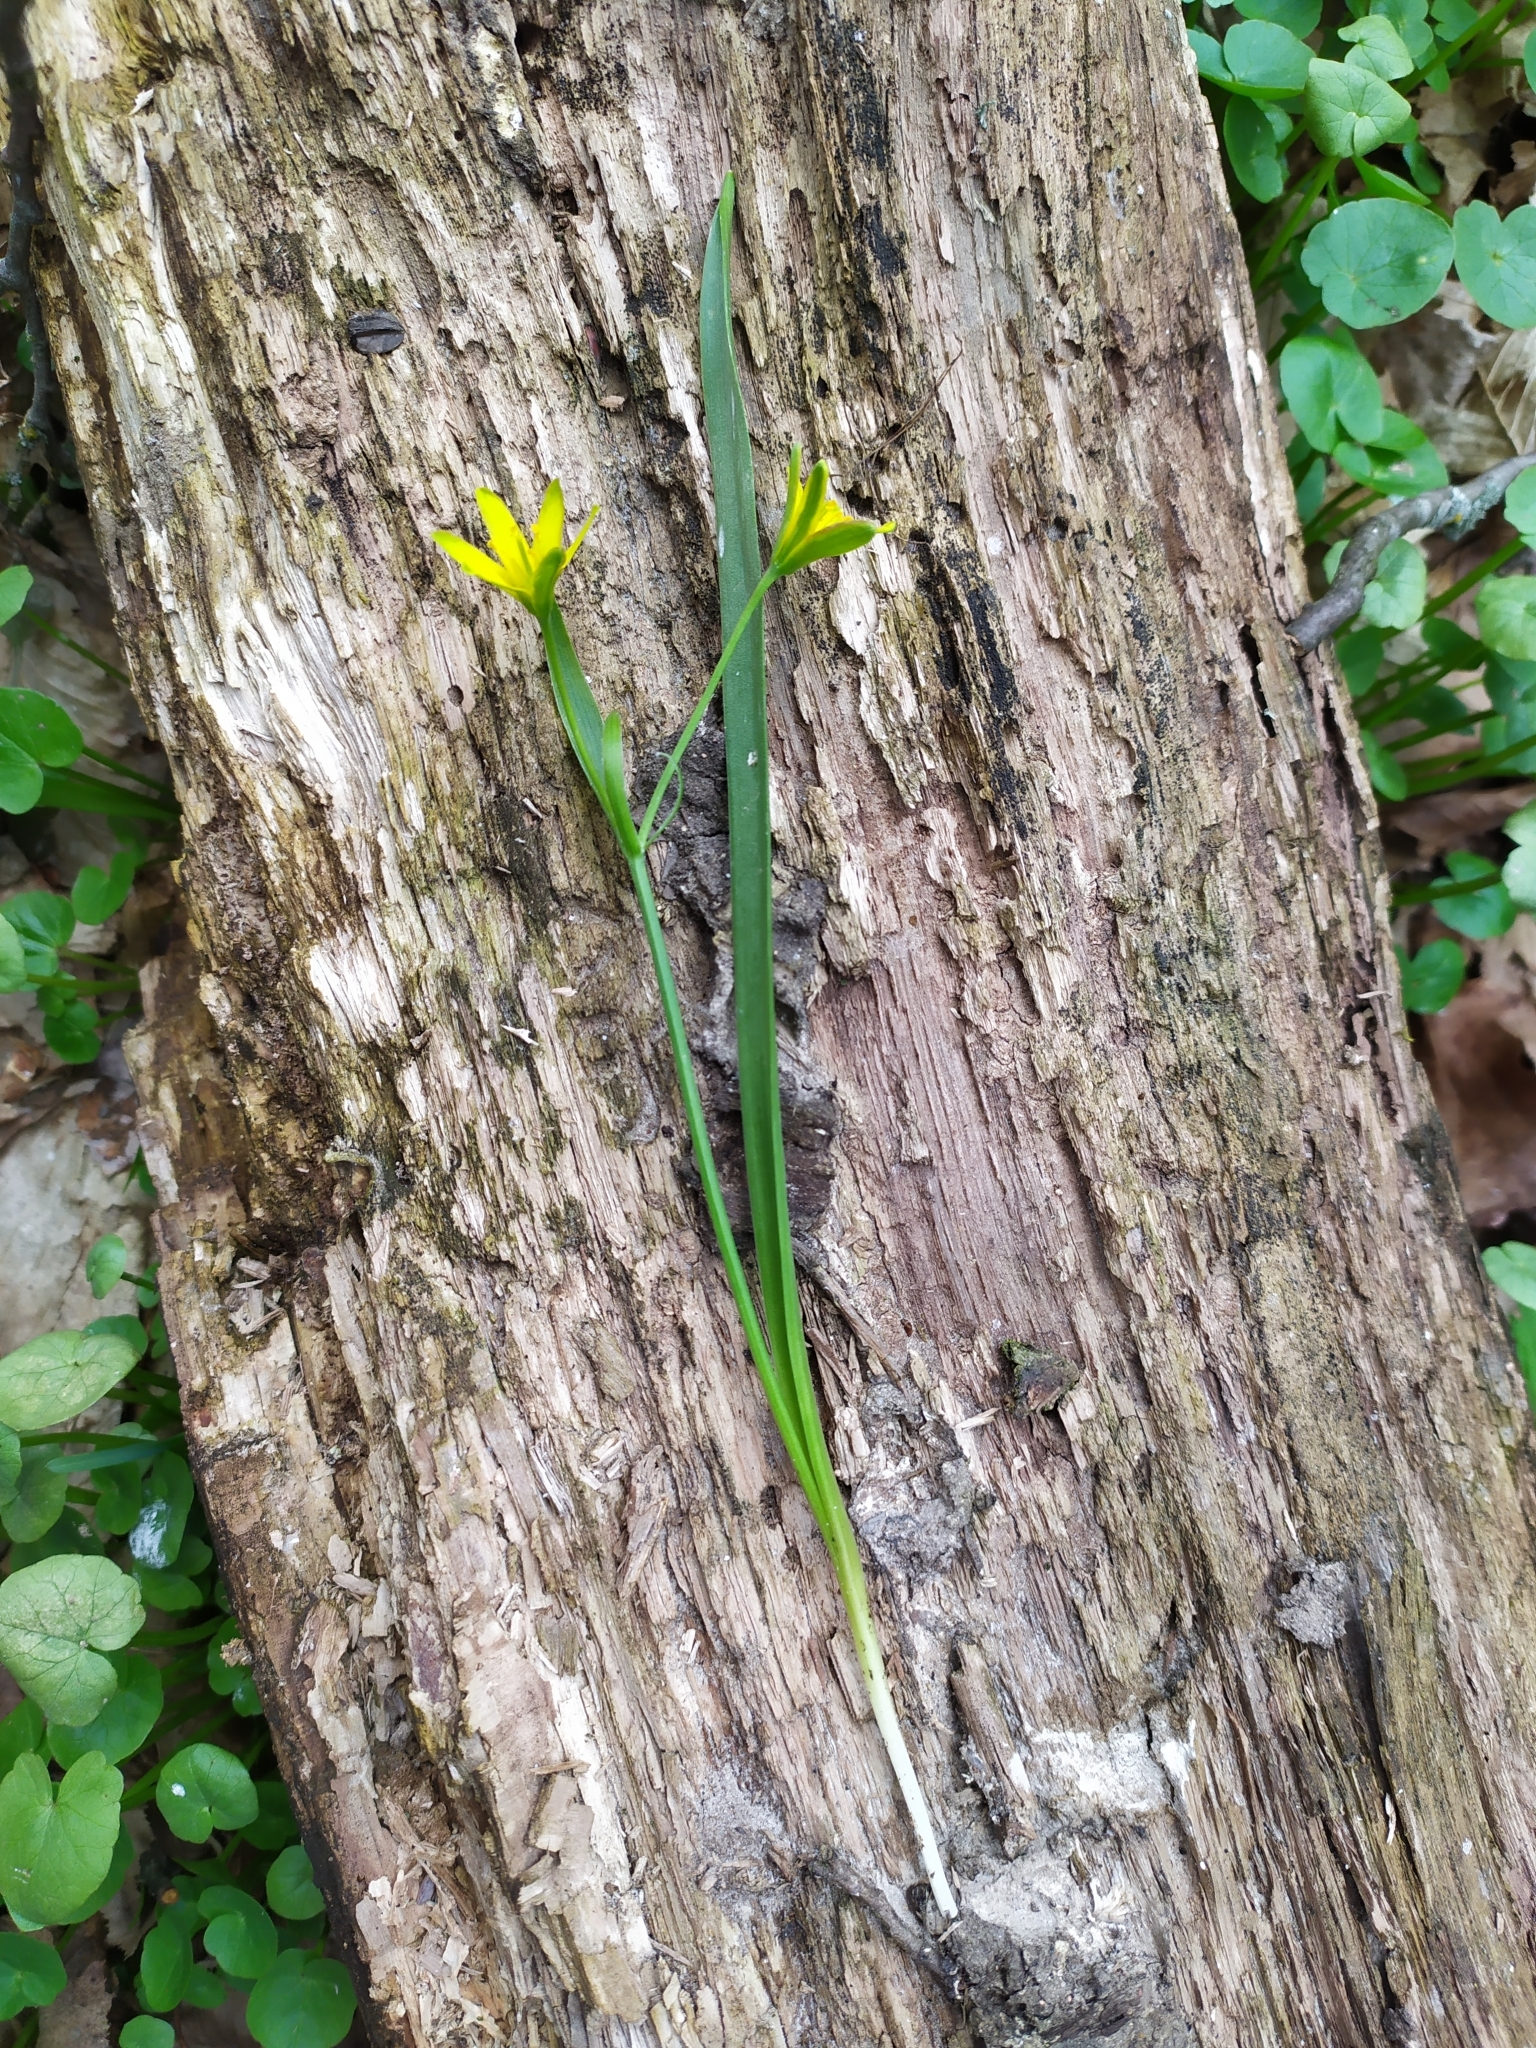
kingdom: Plantae
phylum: Tracheophyta
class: Liliopsida
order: Liliales
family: Liliaceae
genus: Gagea
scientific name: Gagea lutea
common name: Yellow star-of-bethlehem
